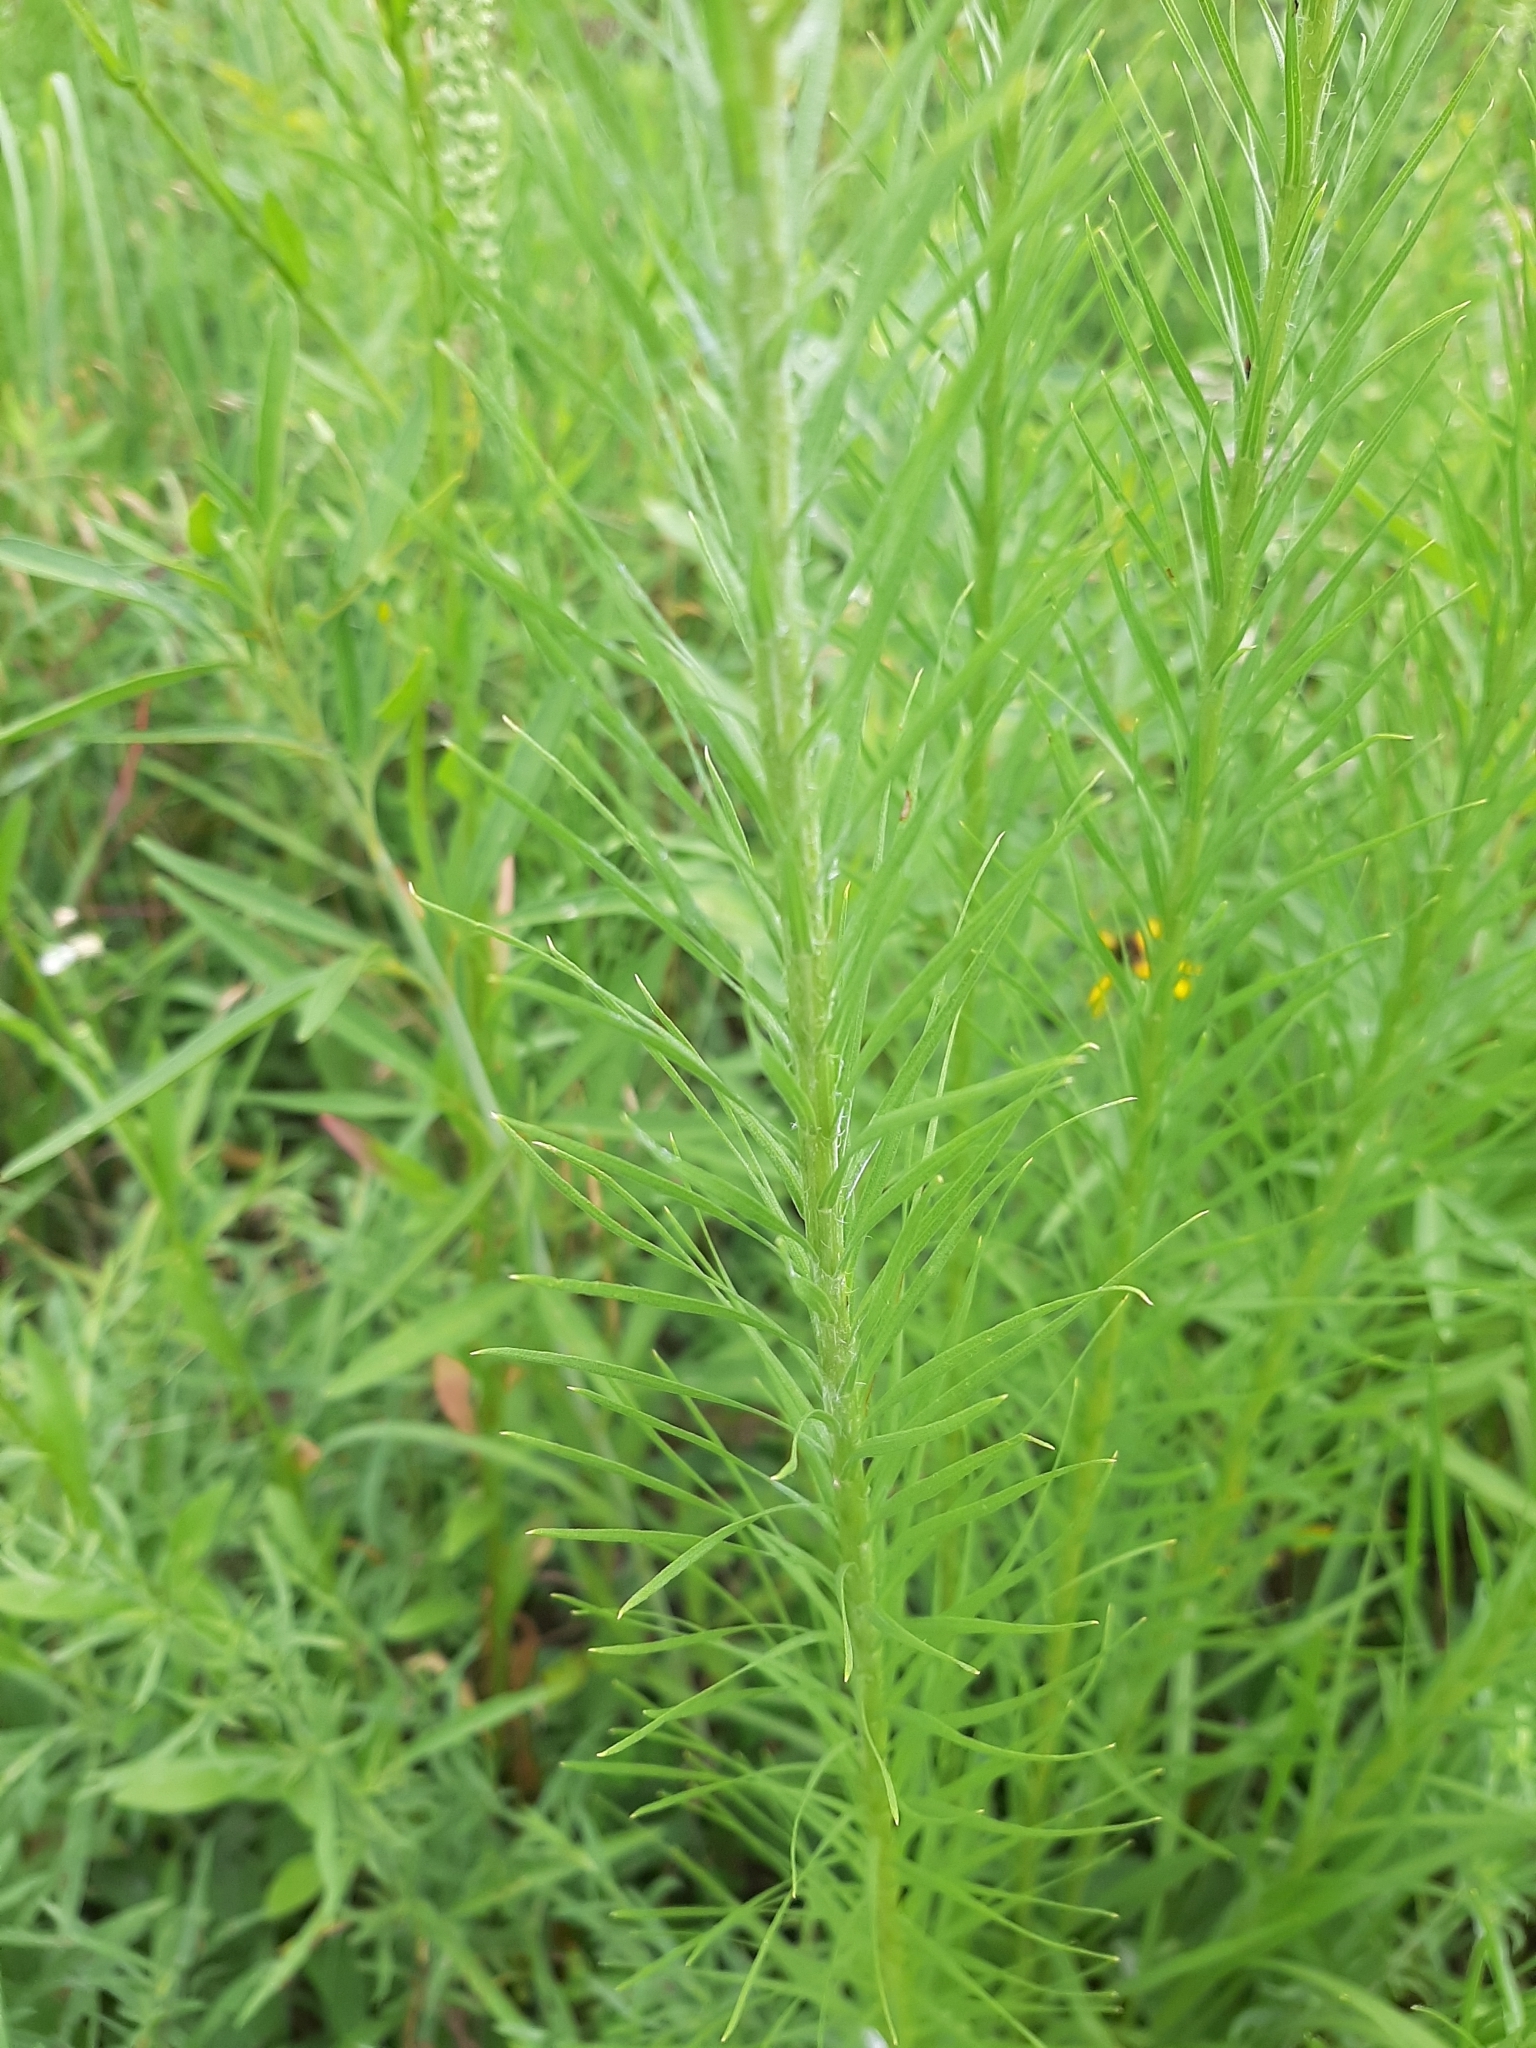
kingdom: Plantae
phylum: Tracheophyta
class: Magnoliopsida
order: Asterales
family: Asteraceae
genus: Liatris
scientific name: Liatris pycnostachya
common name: Cattail gayfeather
